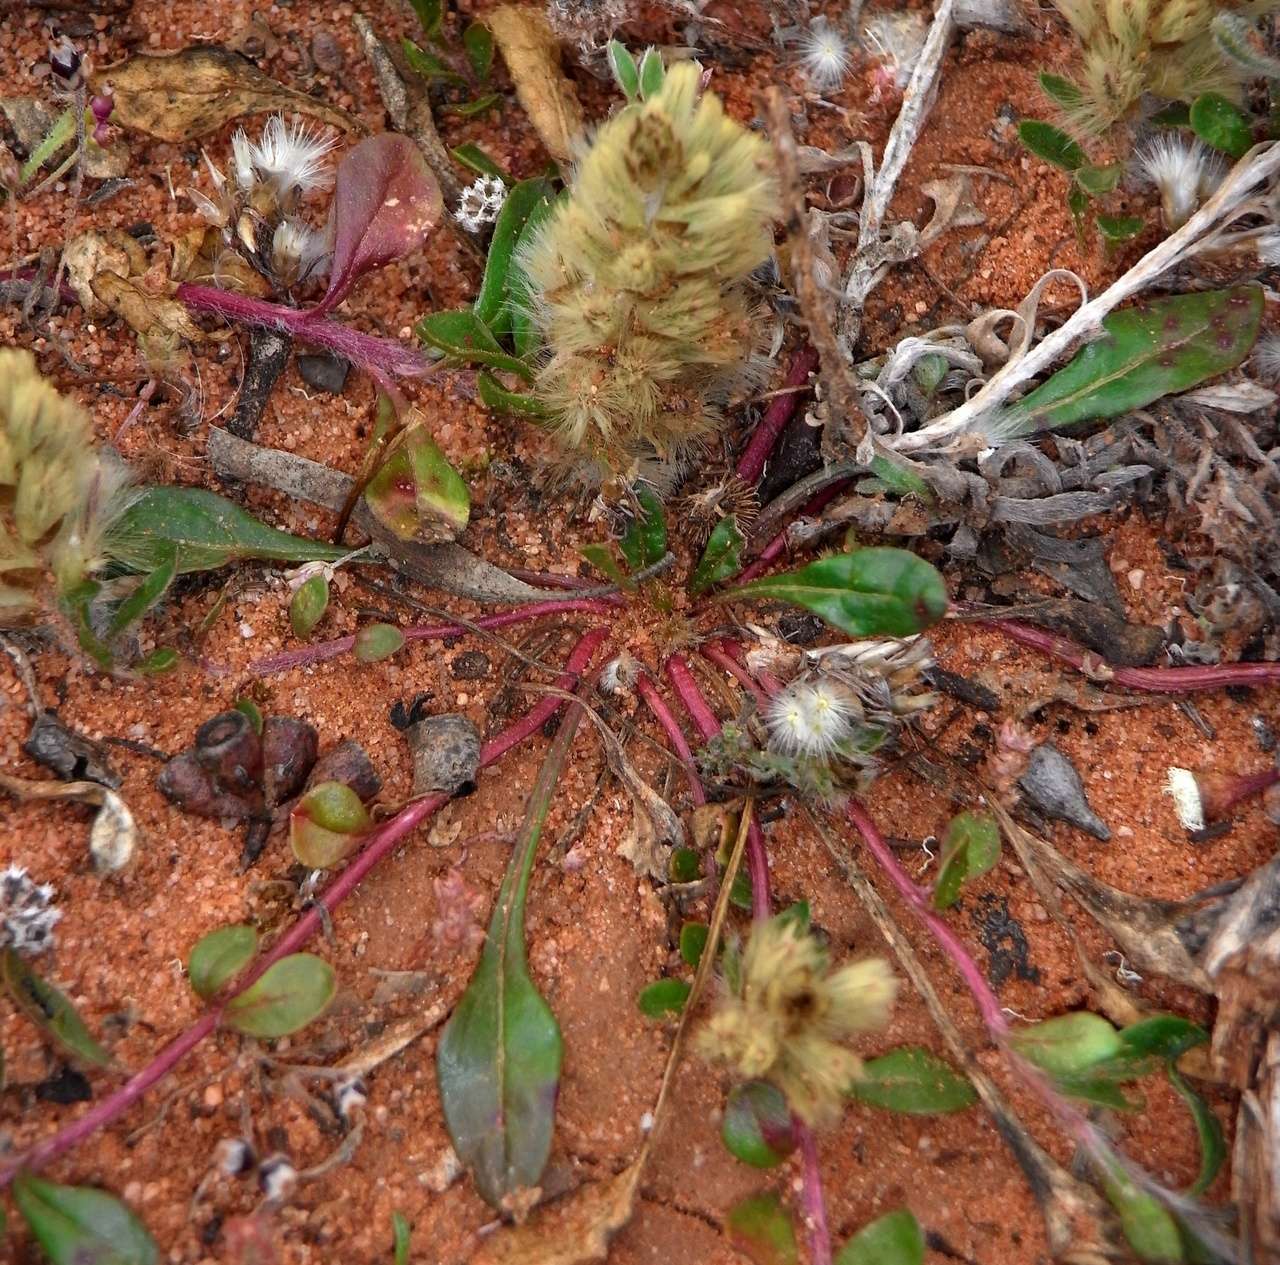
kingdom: Plantae
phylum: Tracheophyta
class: Magnoliopsida
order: Caryophyllales
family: Amaranthaceae
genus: Ptilotus
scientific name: Ptilotus spathulatus
